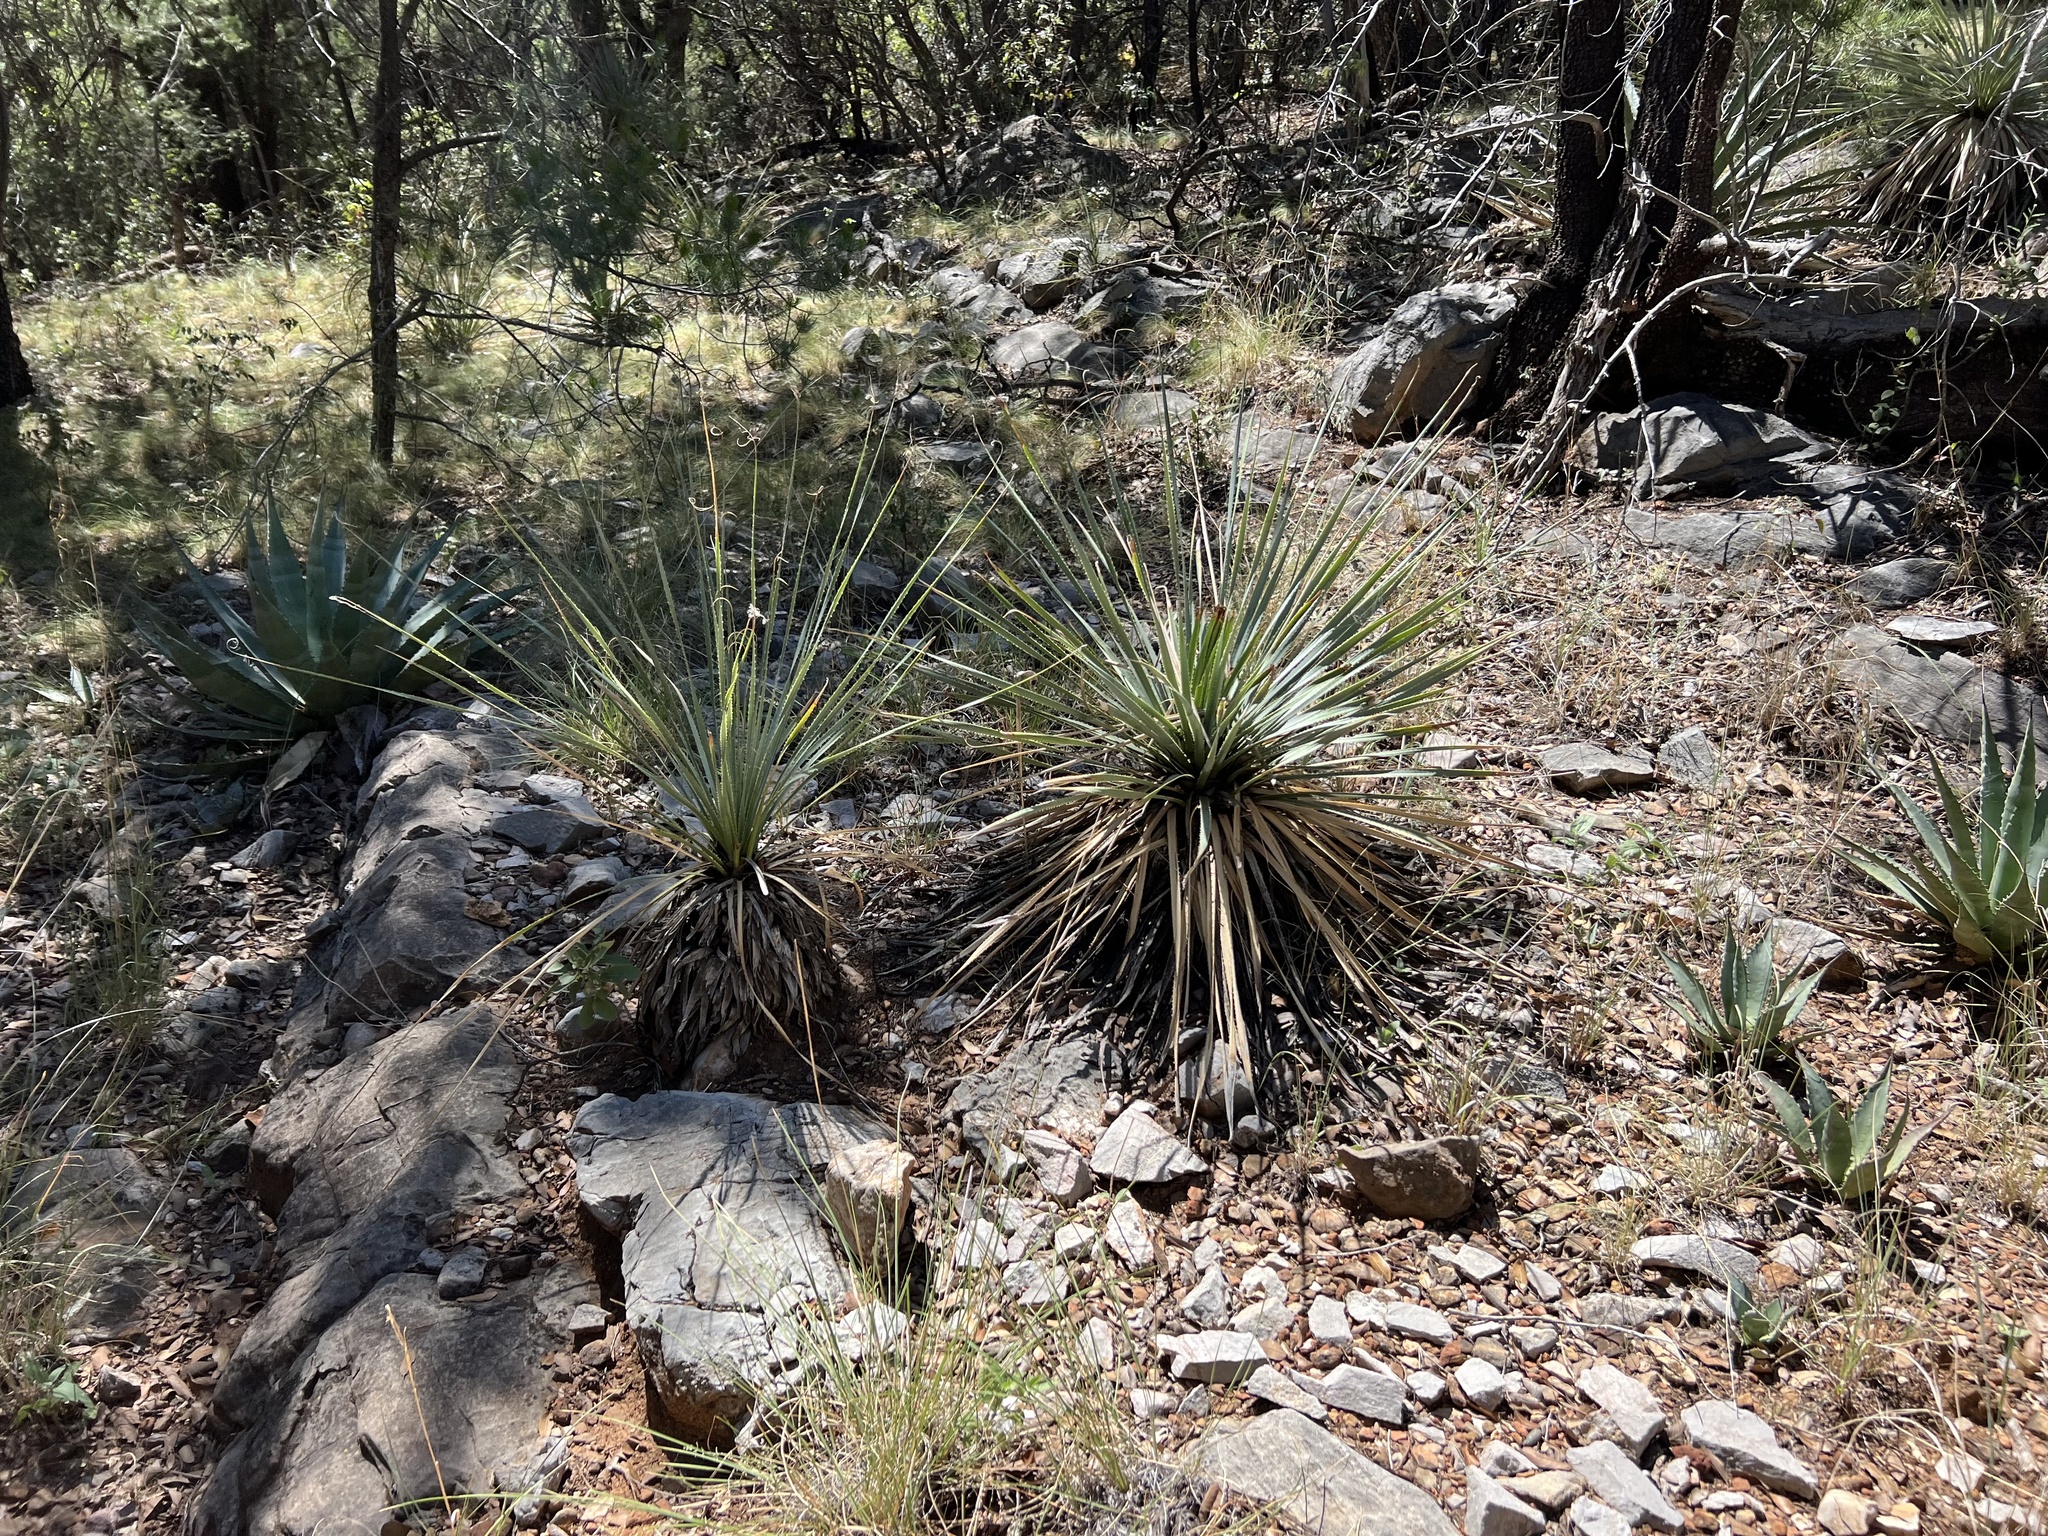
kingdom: Plantae
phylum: Tracheophyta
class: Liliopsida
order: Asparagales
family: Asparagaceae
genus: Dasylirion
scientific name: Dasylirion wheeleri
